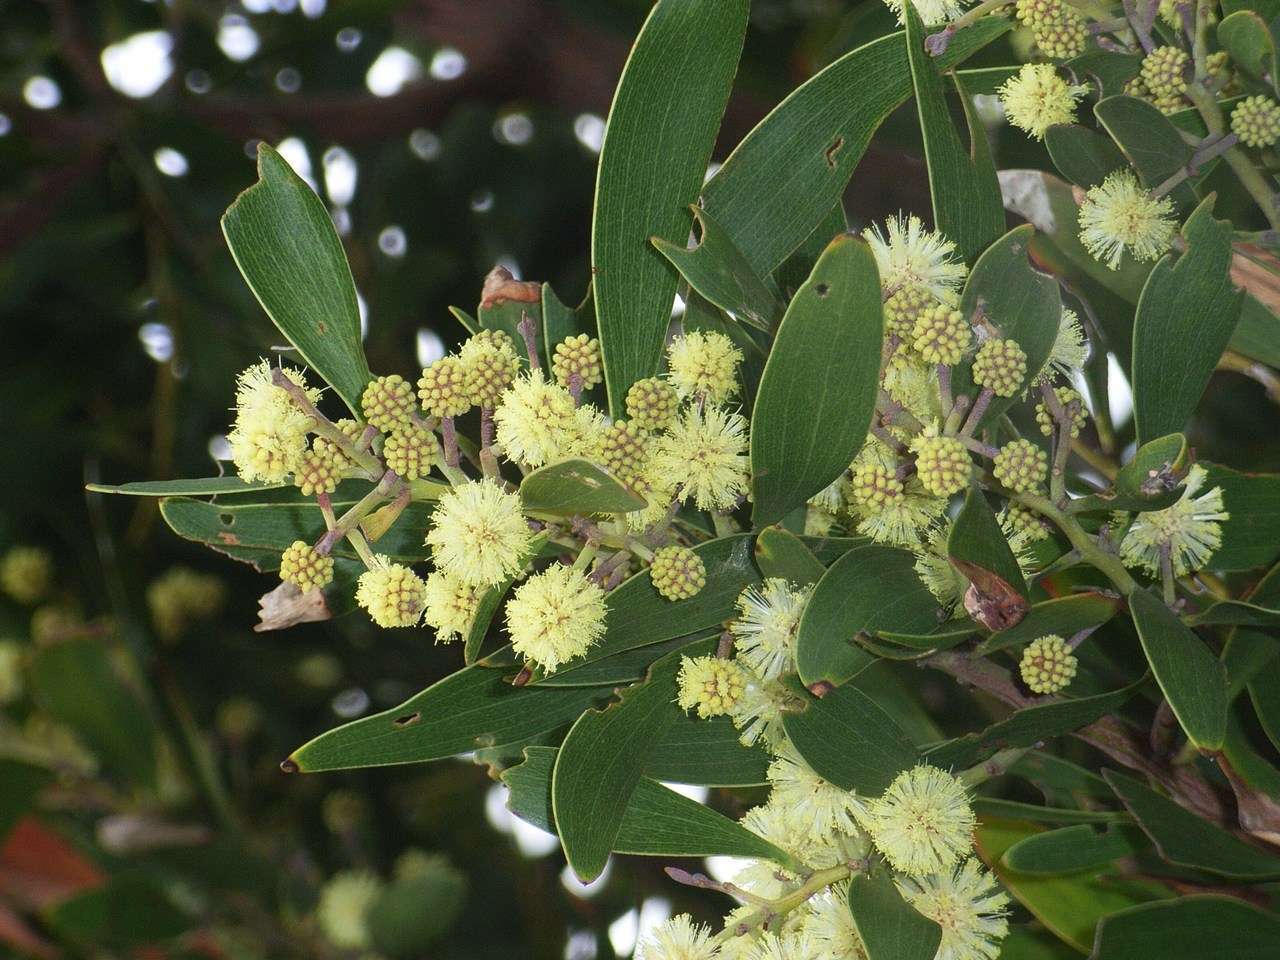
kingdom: Plantae
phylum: Tracheophyta
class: Magnoliopsida
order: Fabales
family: Fabaceae
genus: Acacia
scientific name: Acacia melanoxylon
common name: Blackwood
